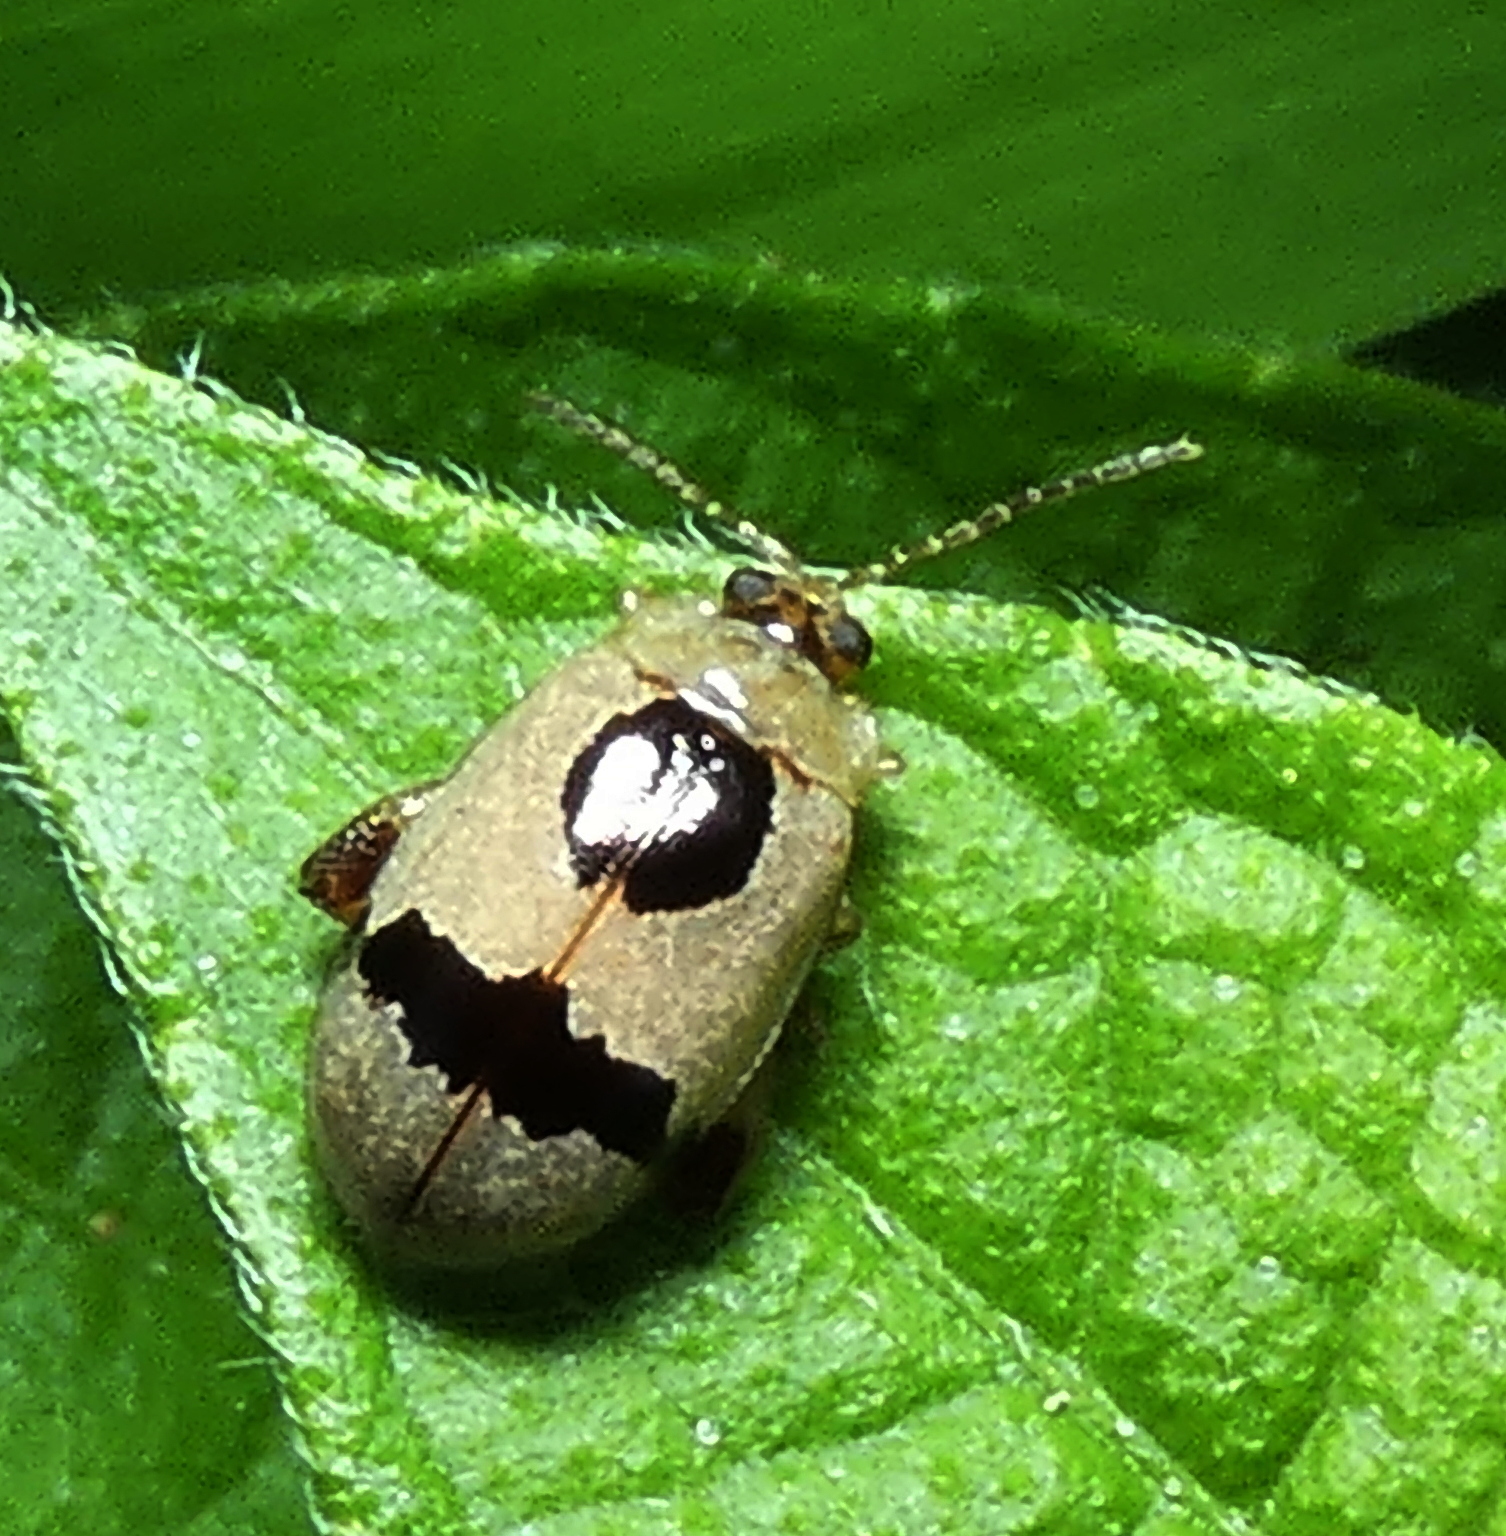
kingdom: Animalia
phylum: Arthropoda
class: Insecta
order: Coleoptera
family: Chrysomelidae
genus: Alagoasa
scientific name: Alagoasa
